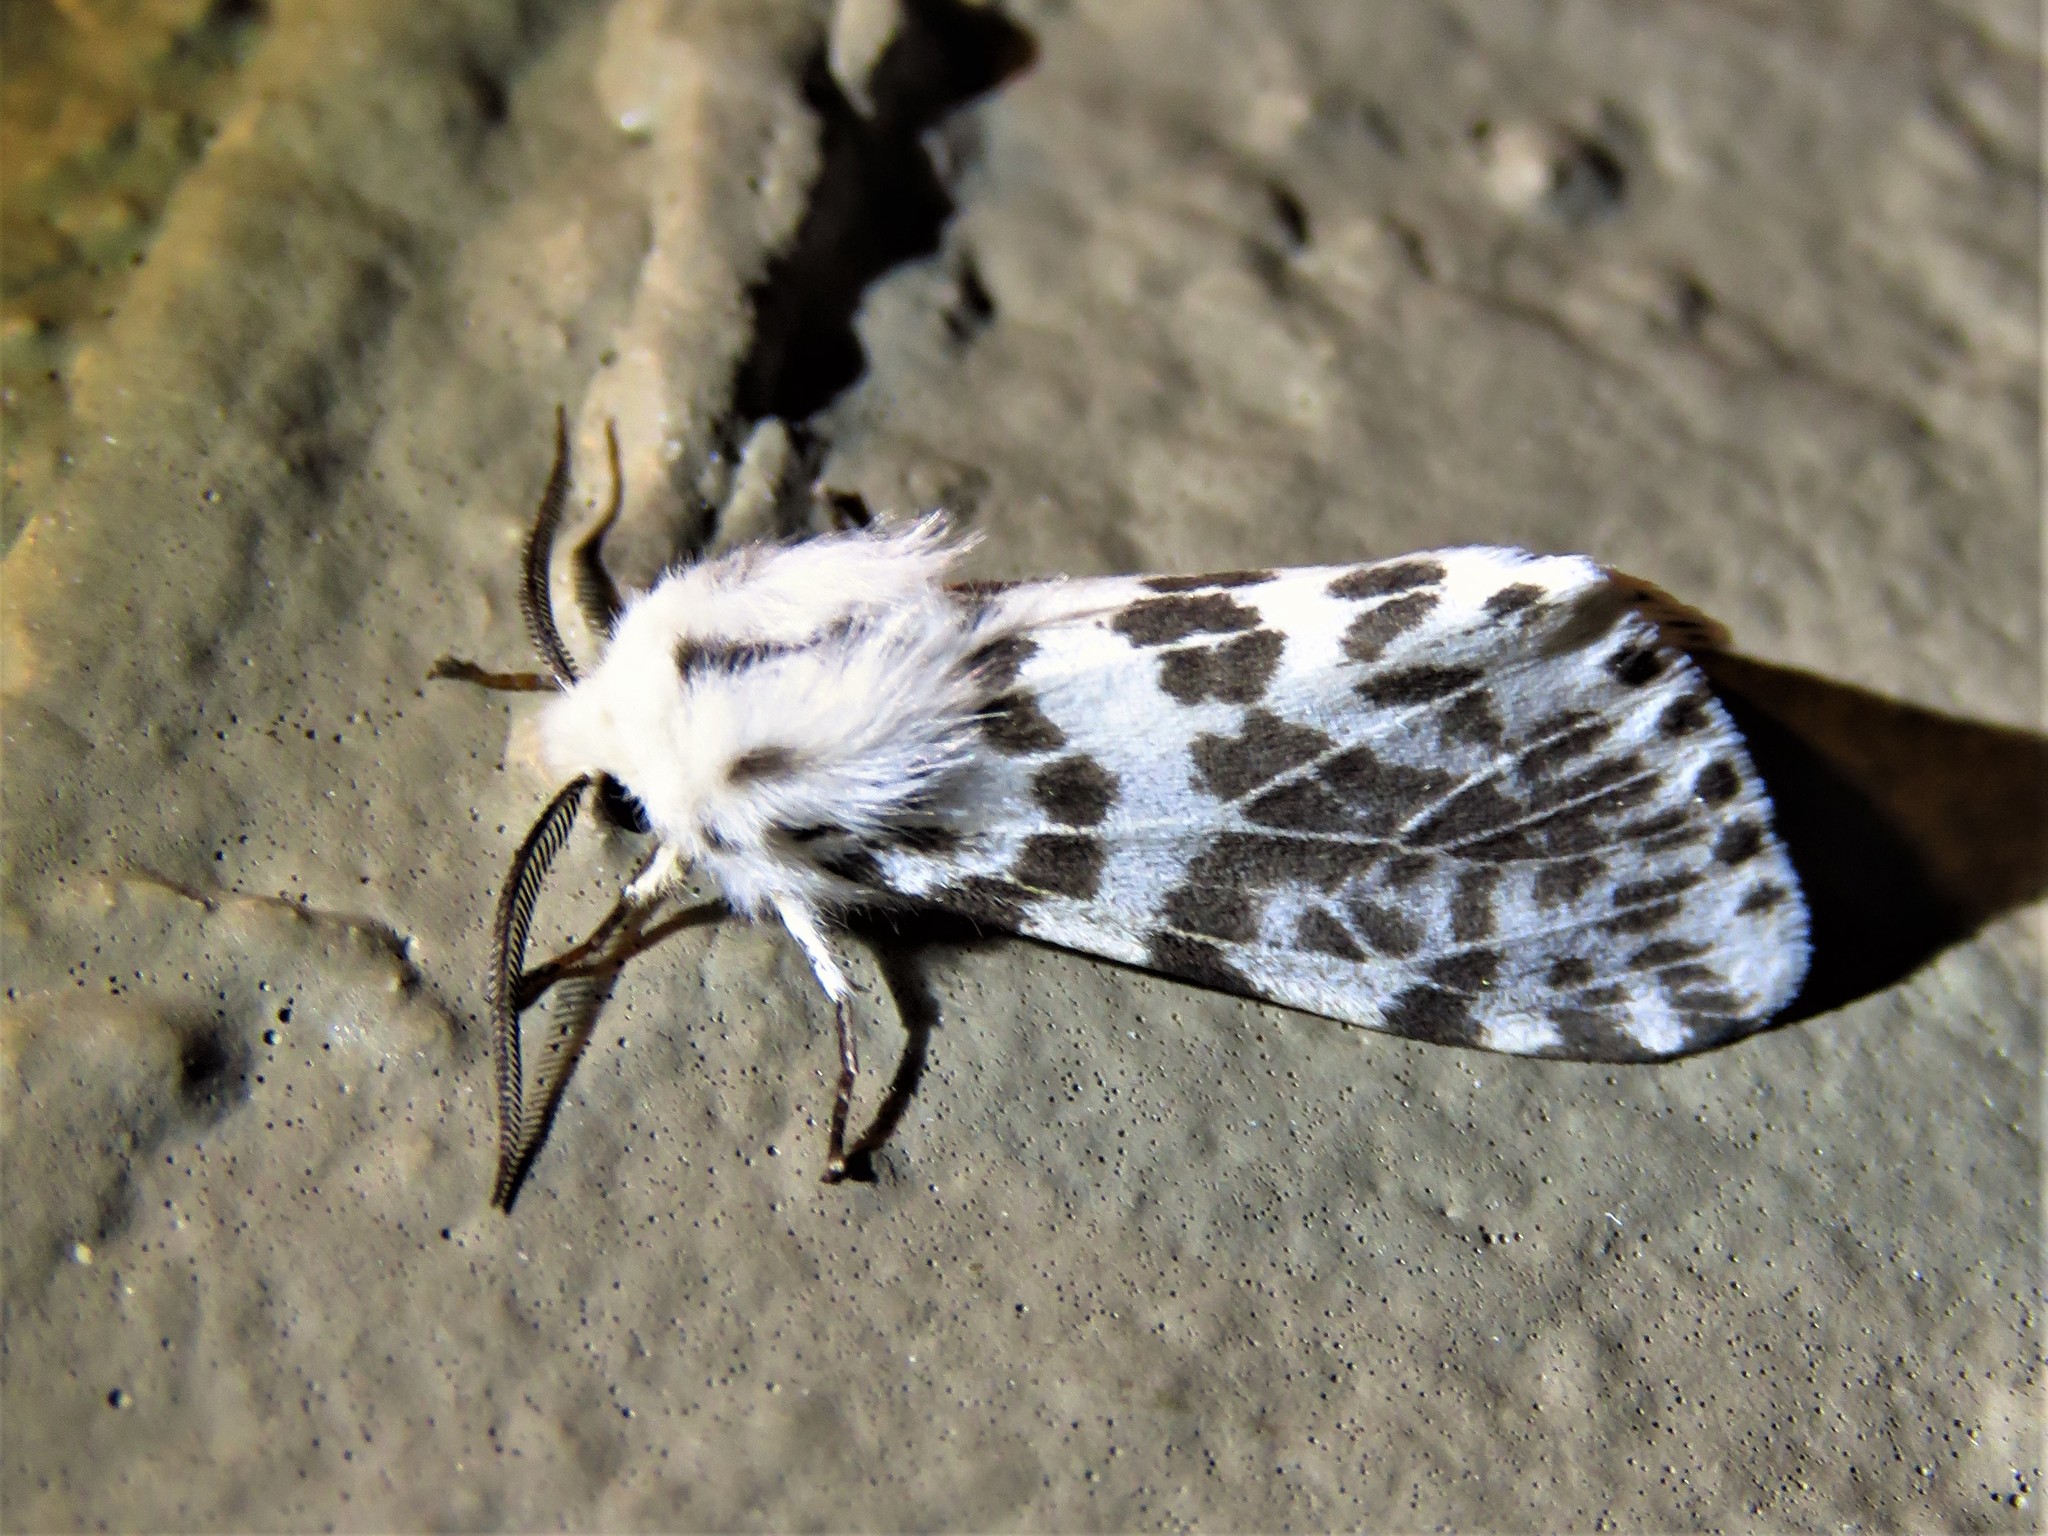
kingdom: Animalia
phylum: Arthropoda
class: Insecta
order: Lepidoptera
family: Erebidae
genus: Hyphantria
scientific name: Hyphantria cunea
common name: American white moth
